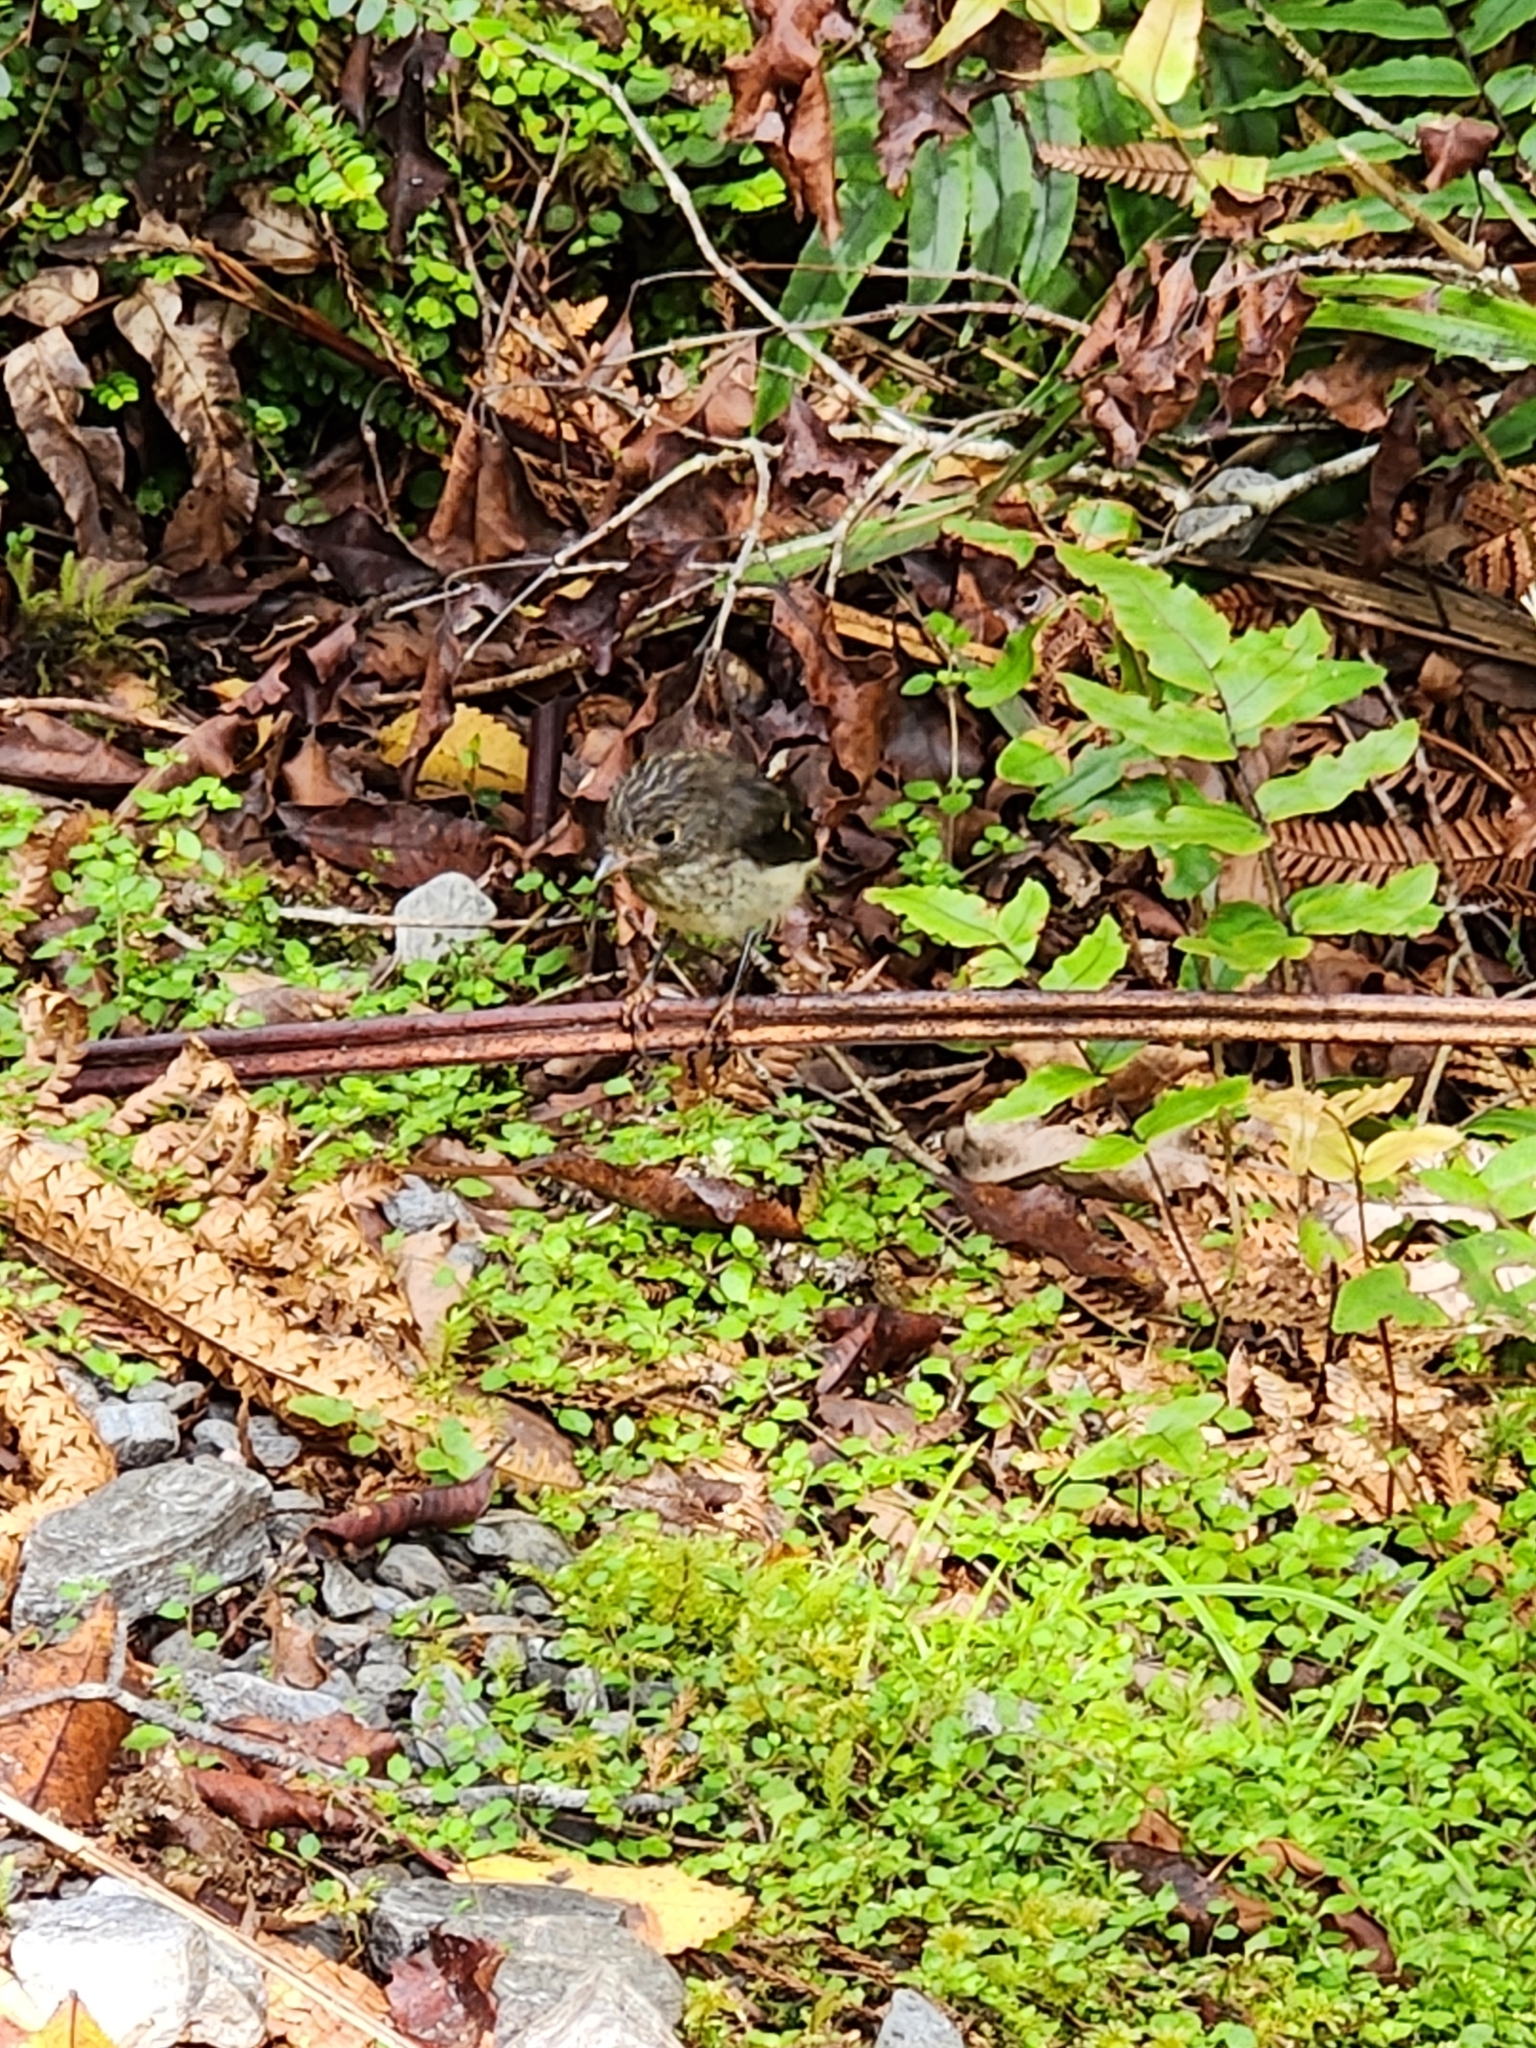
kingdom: Animalia
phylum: Chordata
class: Aves
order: Passeriformes
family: Petroicidae
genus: Petroica
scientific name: Petroica macrocephala
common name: Tomtit
